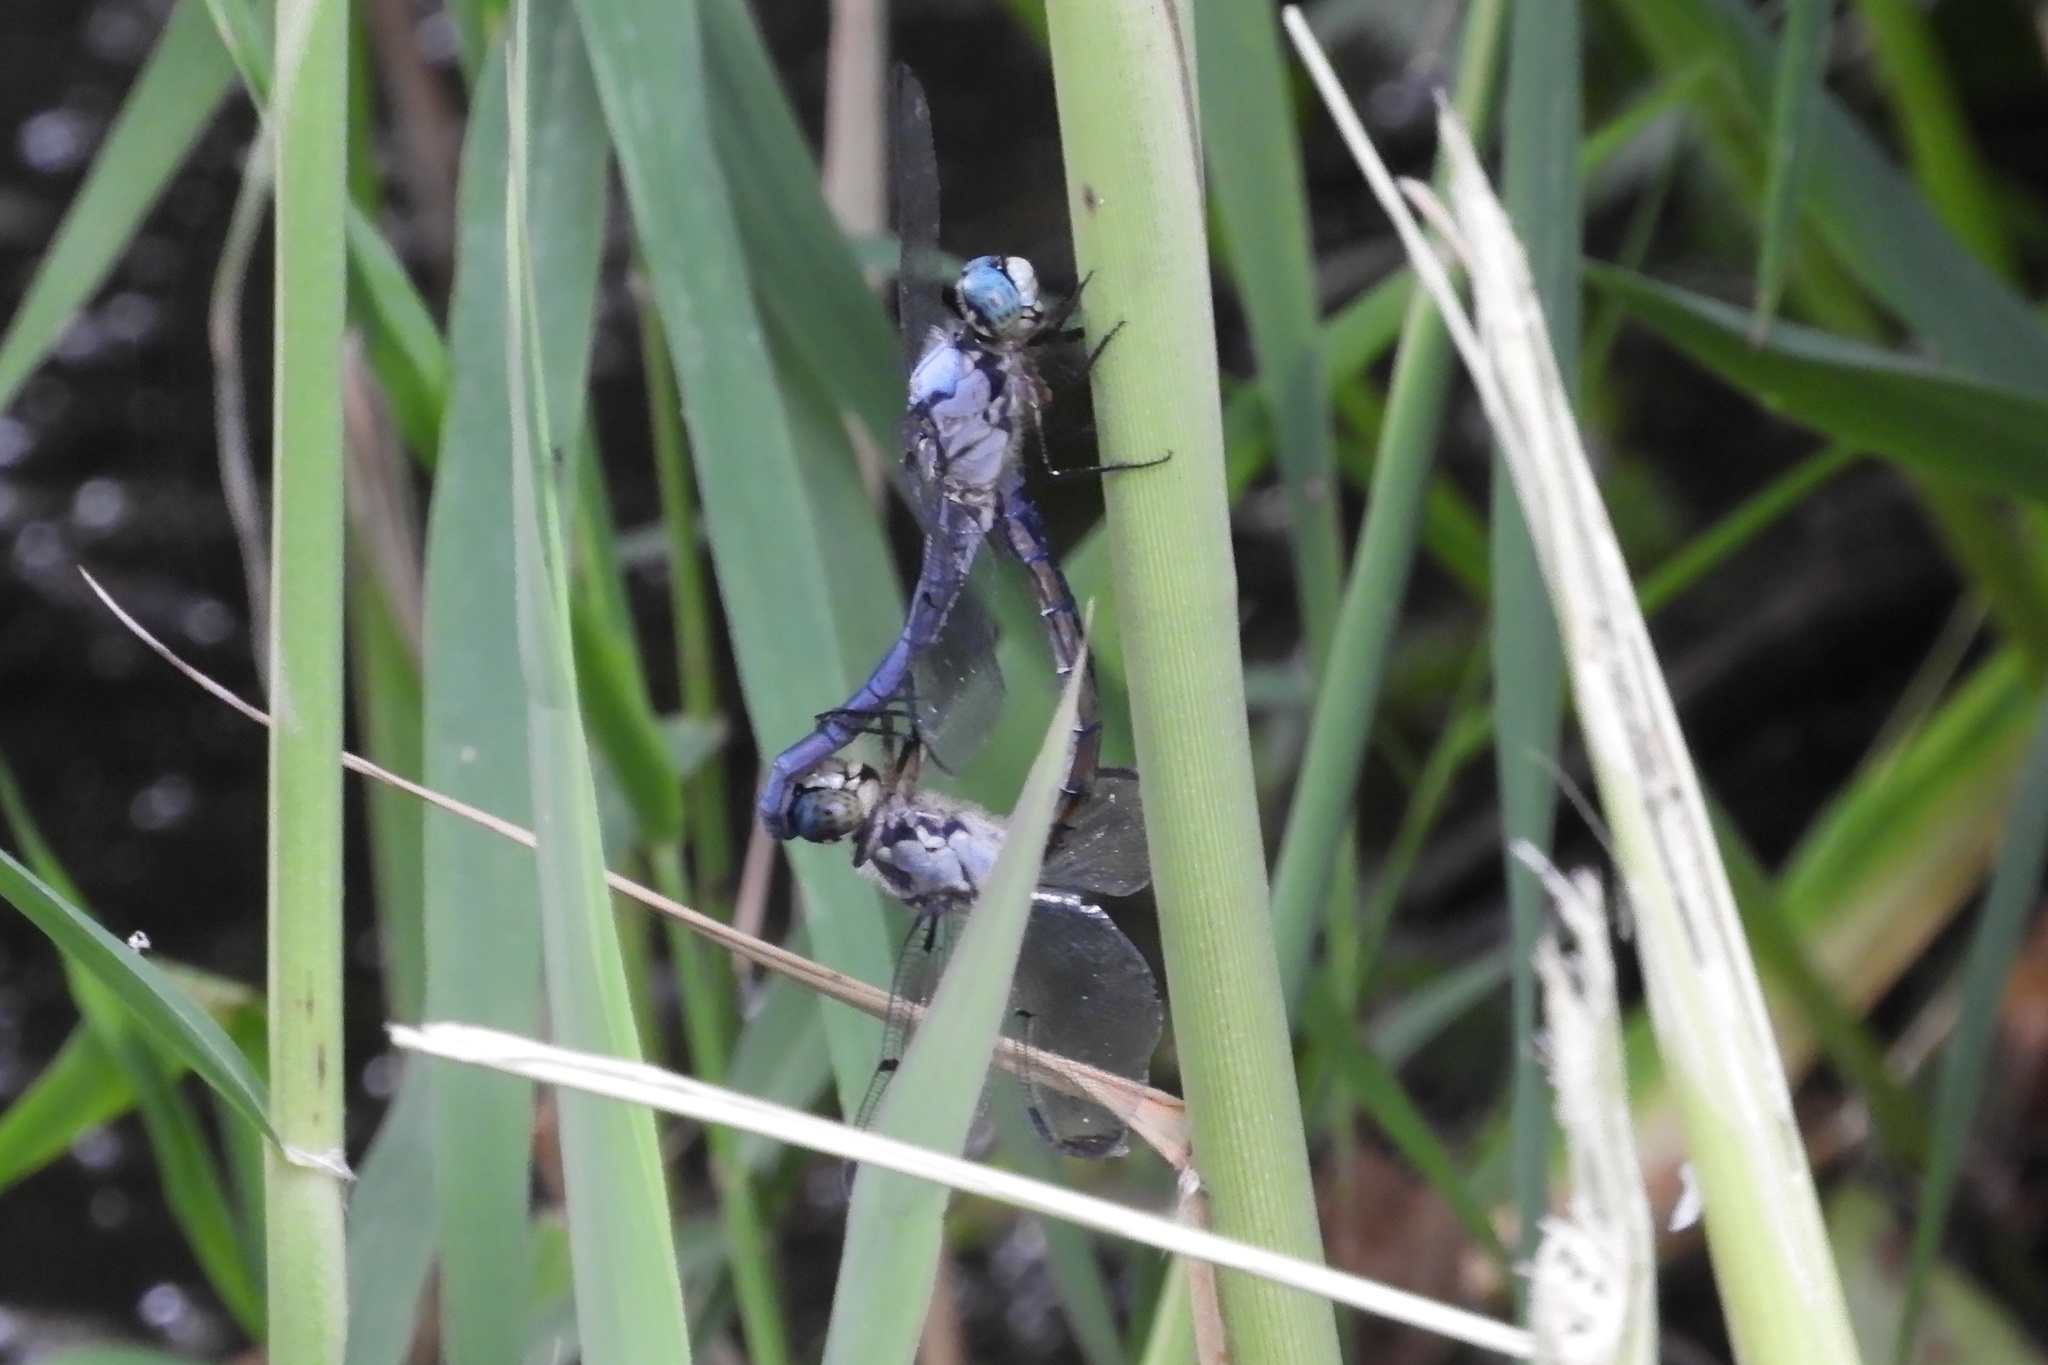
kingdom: Animalia
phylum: Arthropoda
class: Insecta
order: Odonata
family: Libellulidae
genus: Libellula
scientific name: Libellula vibrans
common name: Great blue skimmer
